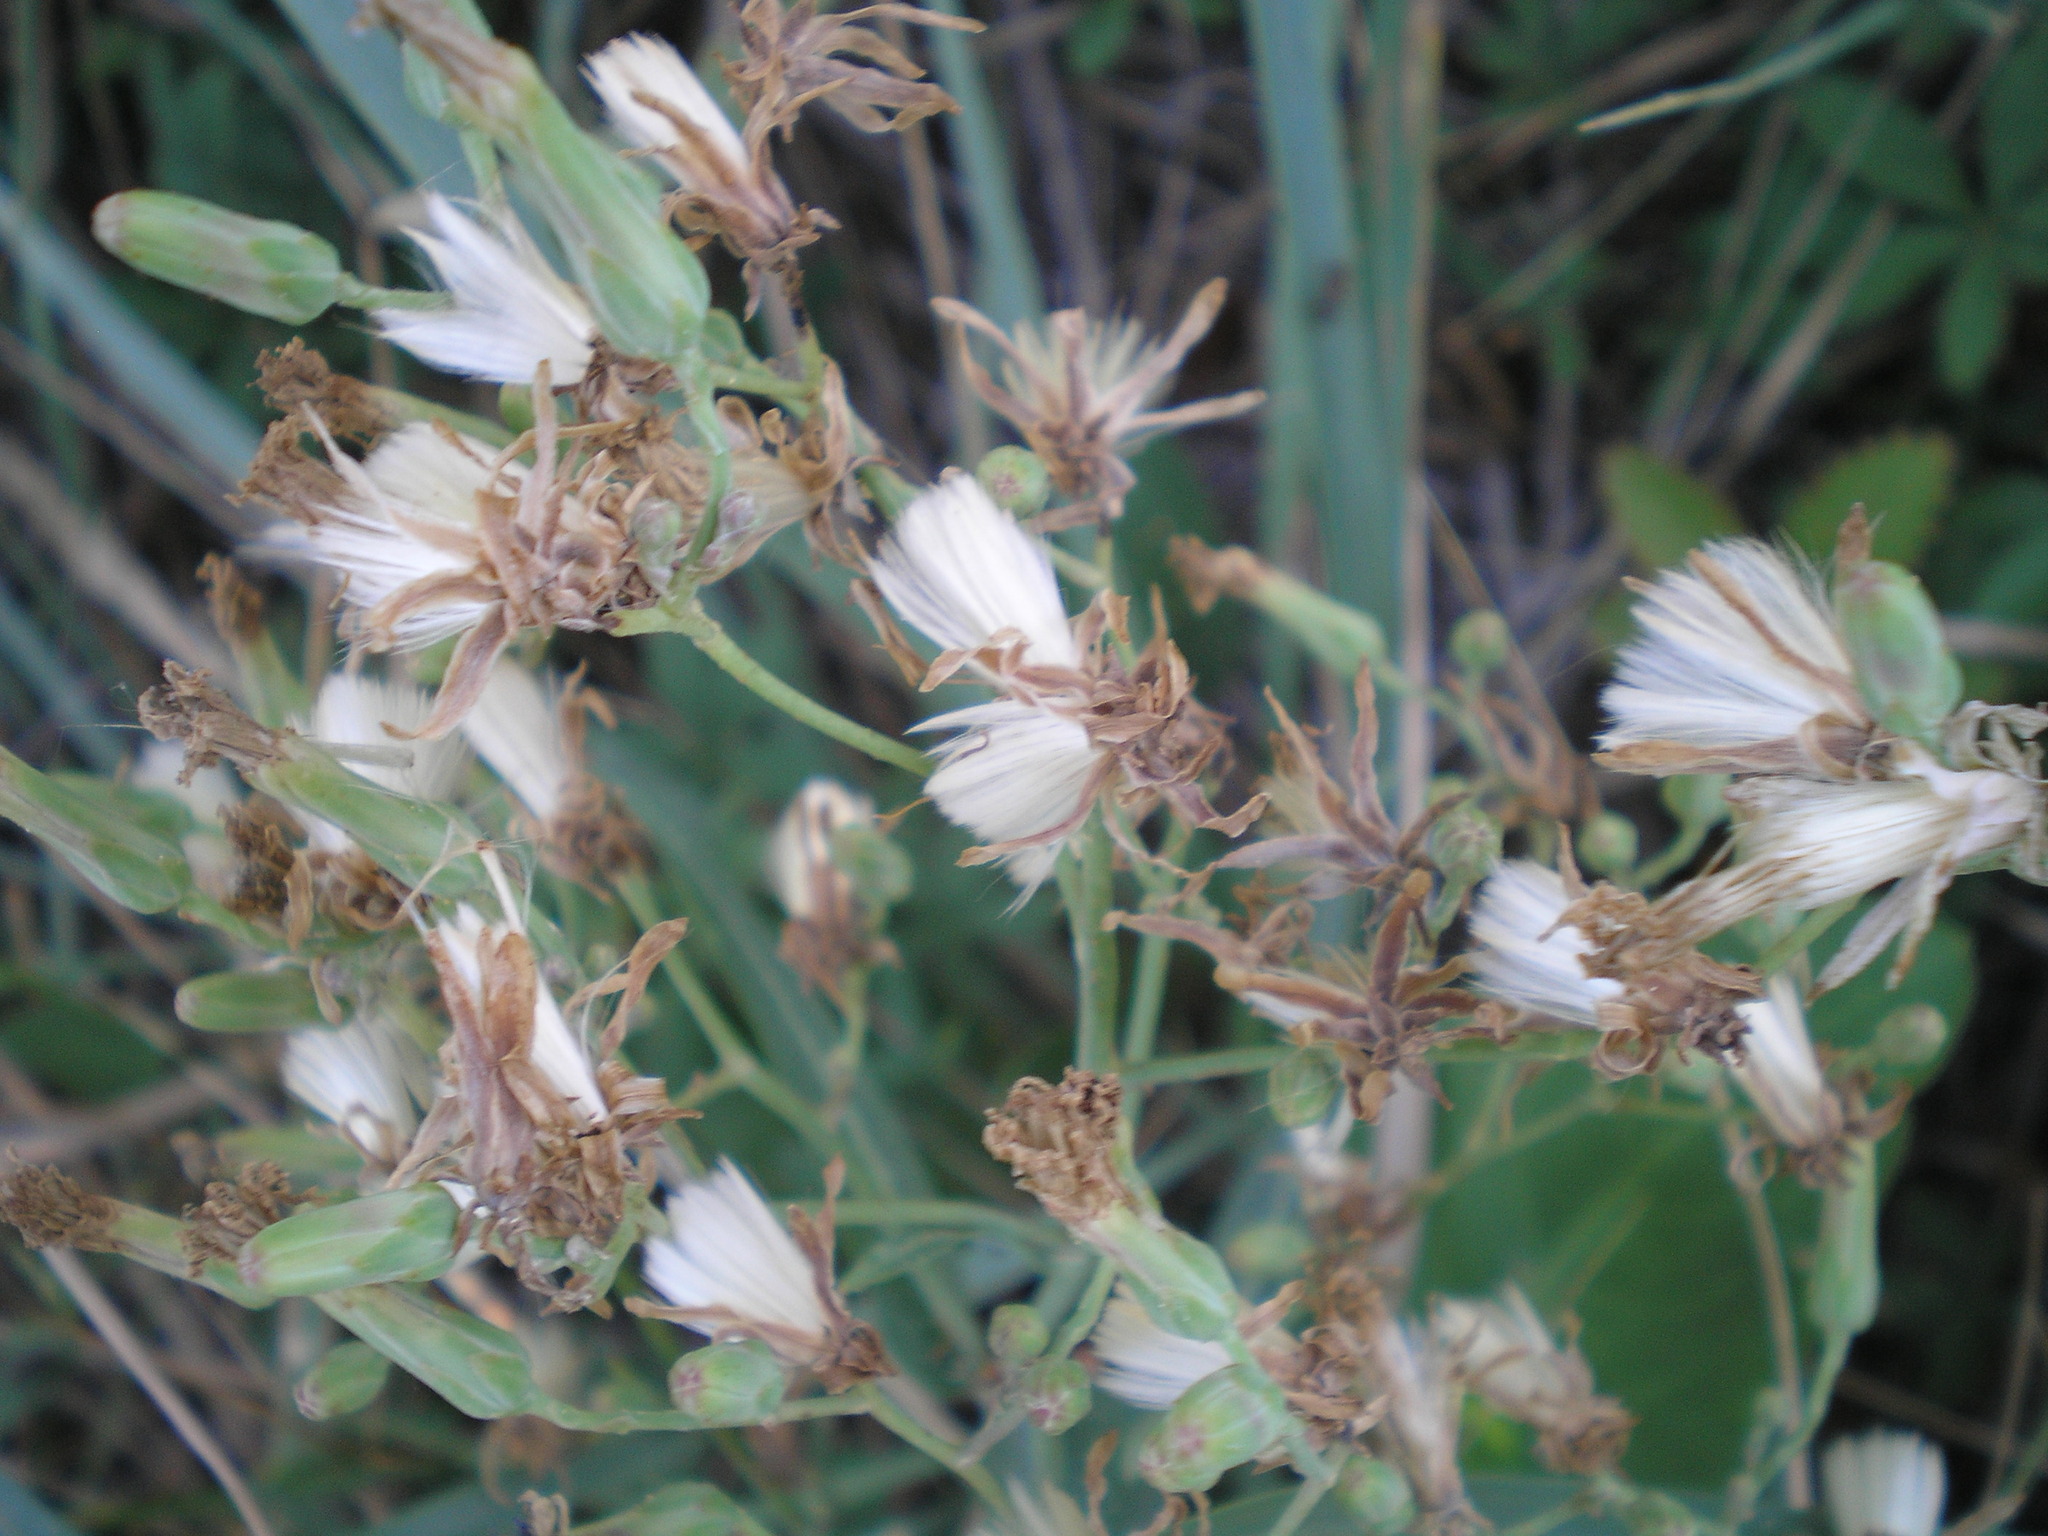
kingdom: Plantae
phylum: Tracheophyta
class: Magnoliopsida
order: Asterales
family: Asteraceae
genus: Lactuca
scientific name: Lactuca tatarica
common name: Blue lettuce
